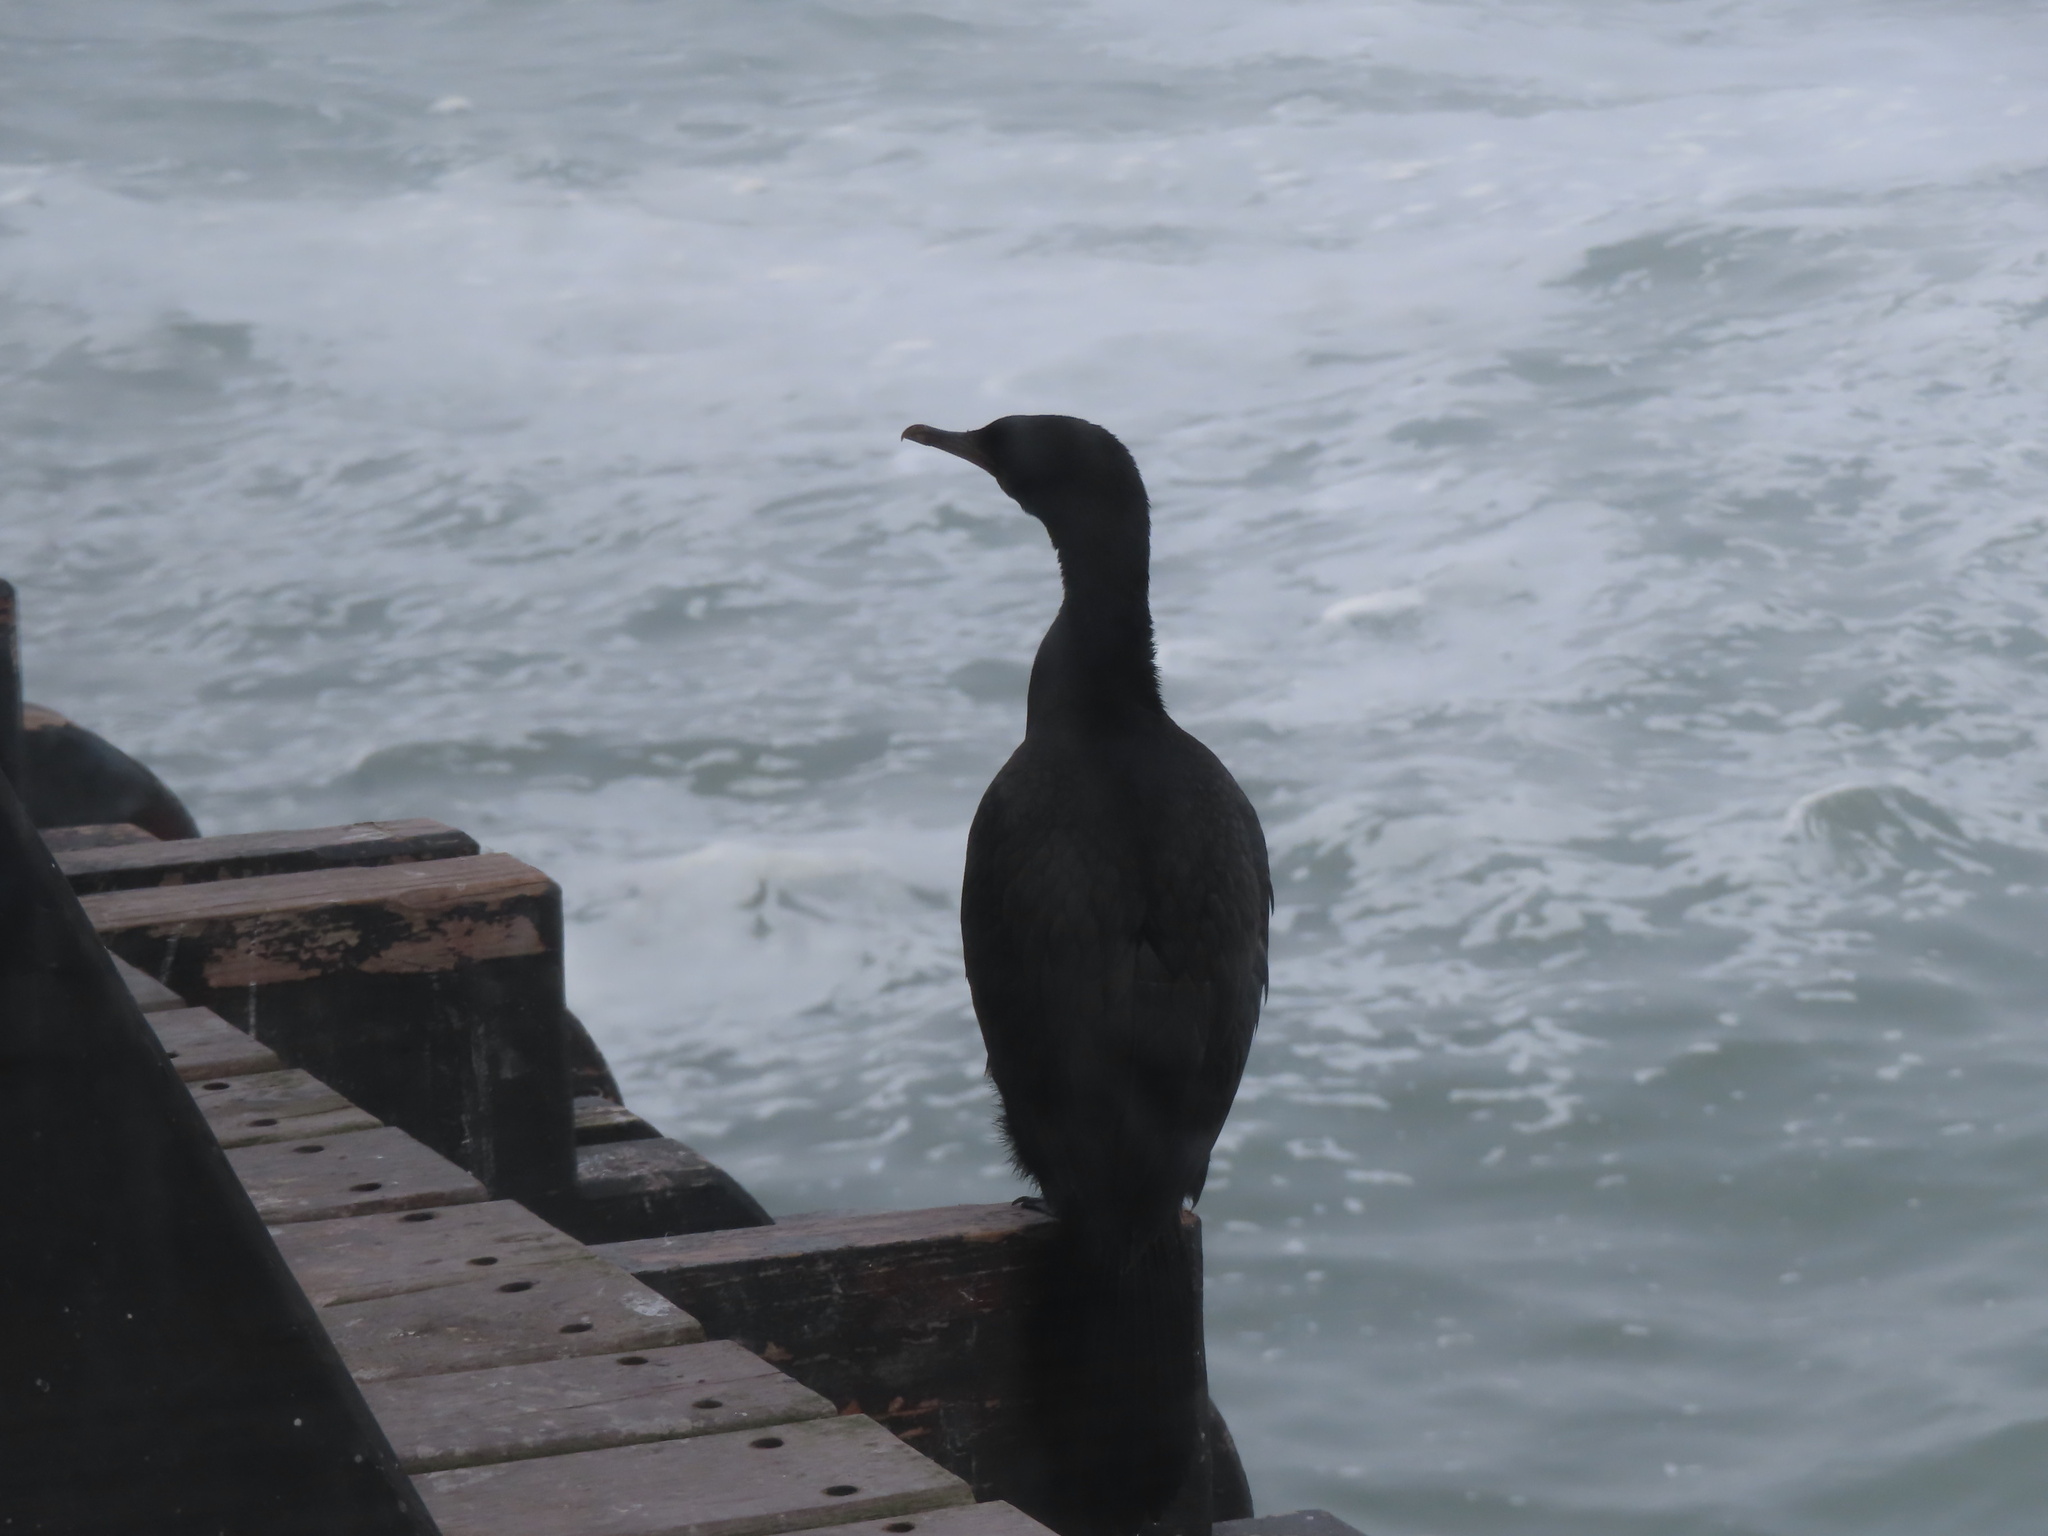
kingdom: Animalia
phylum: Chordata
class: Aves
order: Suliformes
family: Phalacrocoracidae
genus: Phalacrocorax
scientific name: Phalacrocorax capensis
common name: Cape cormorant
